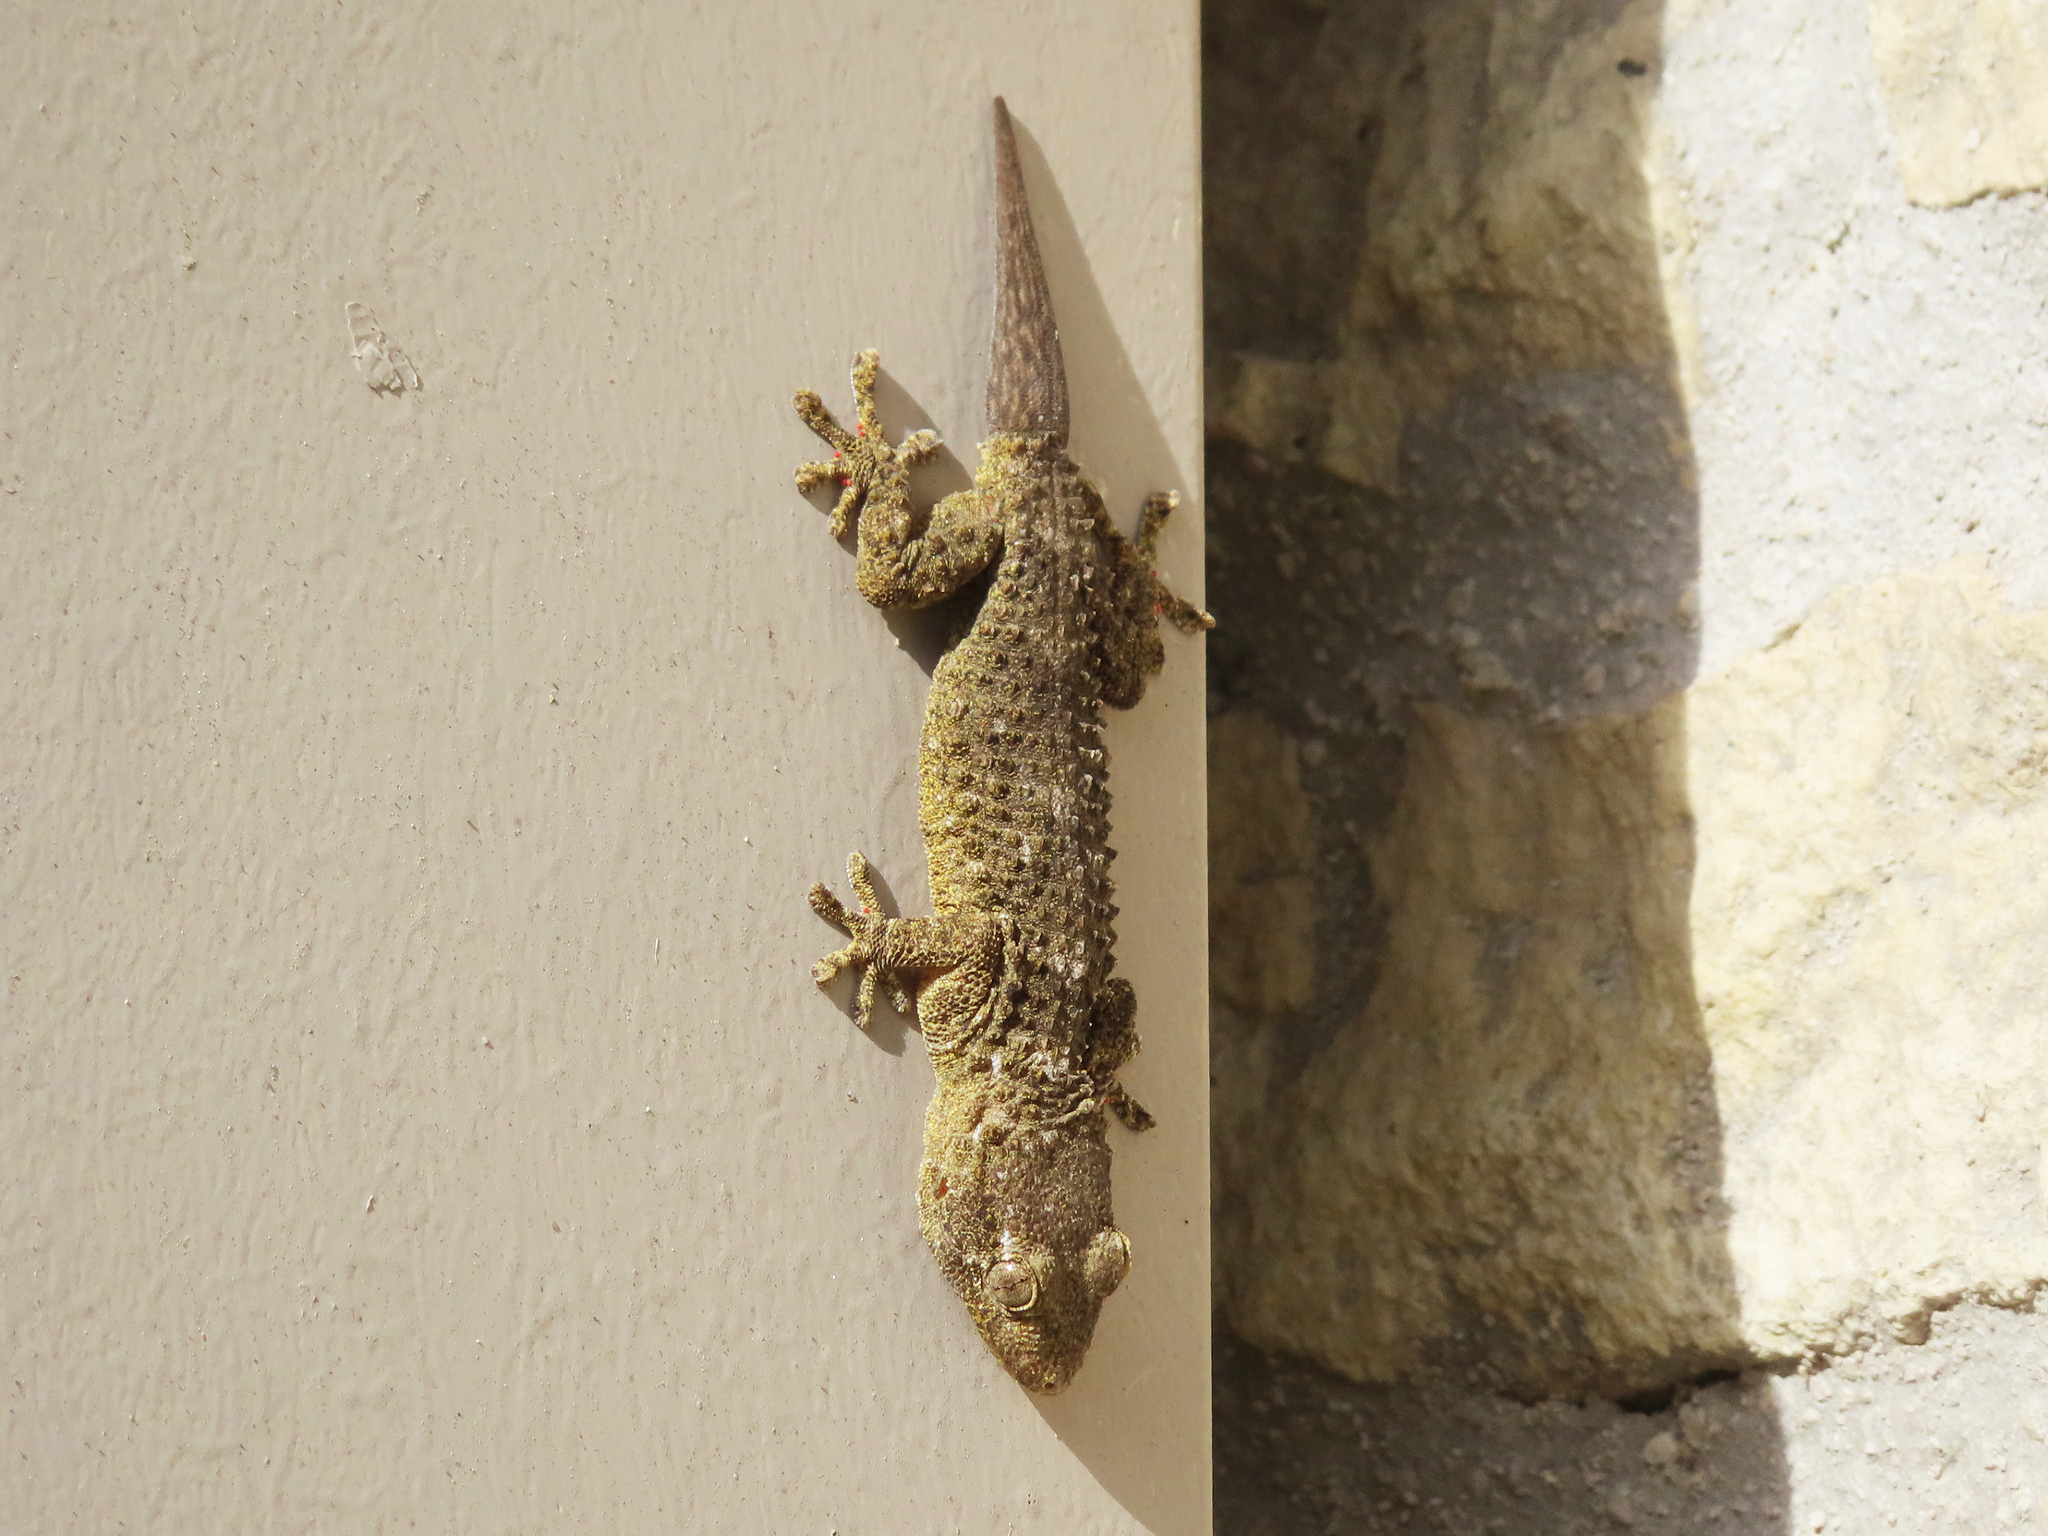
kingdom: Animalia
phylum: Chordata
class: Squamata
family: Phyllodactylidae
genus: Tarentola
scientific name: Tarentola mauritanica
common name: Moorish gecko
